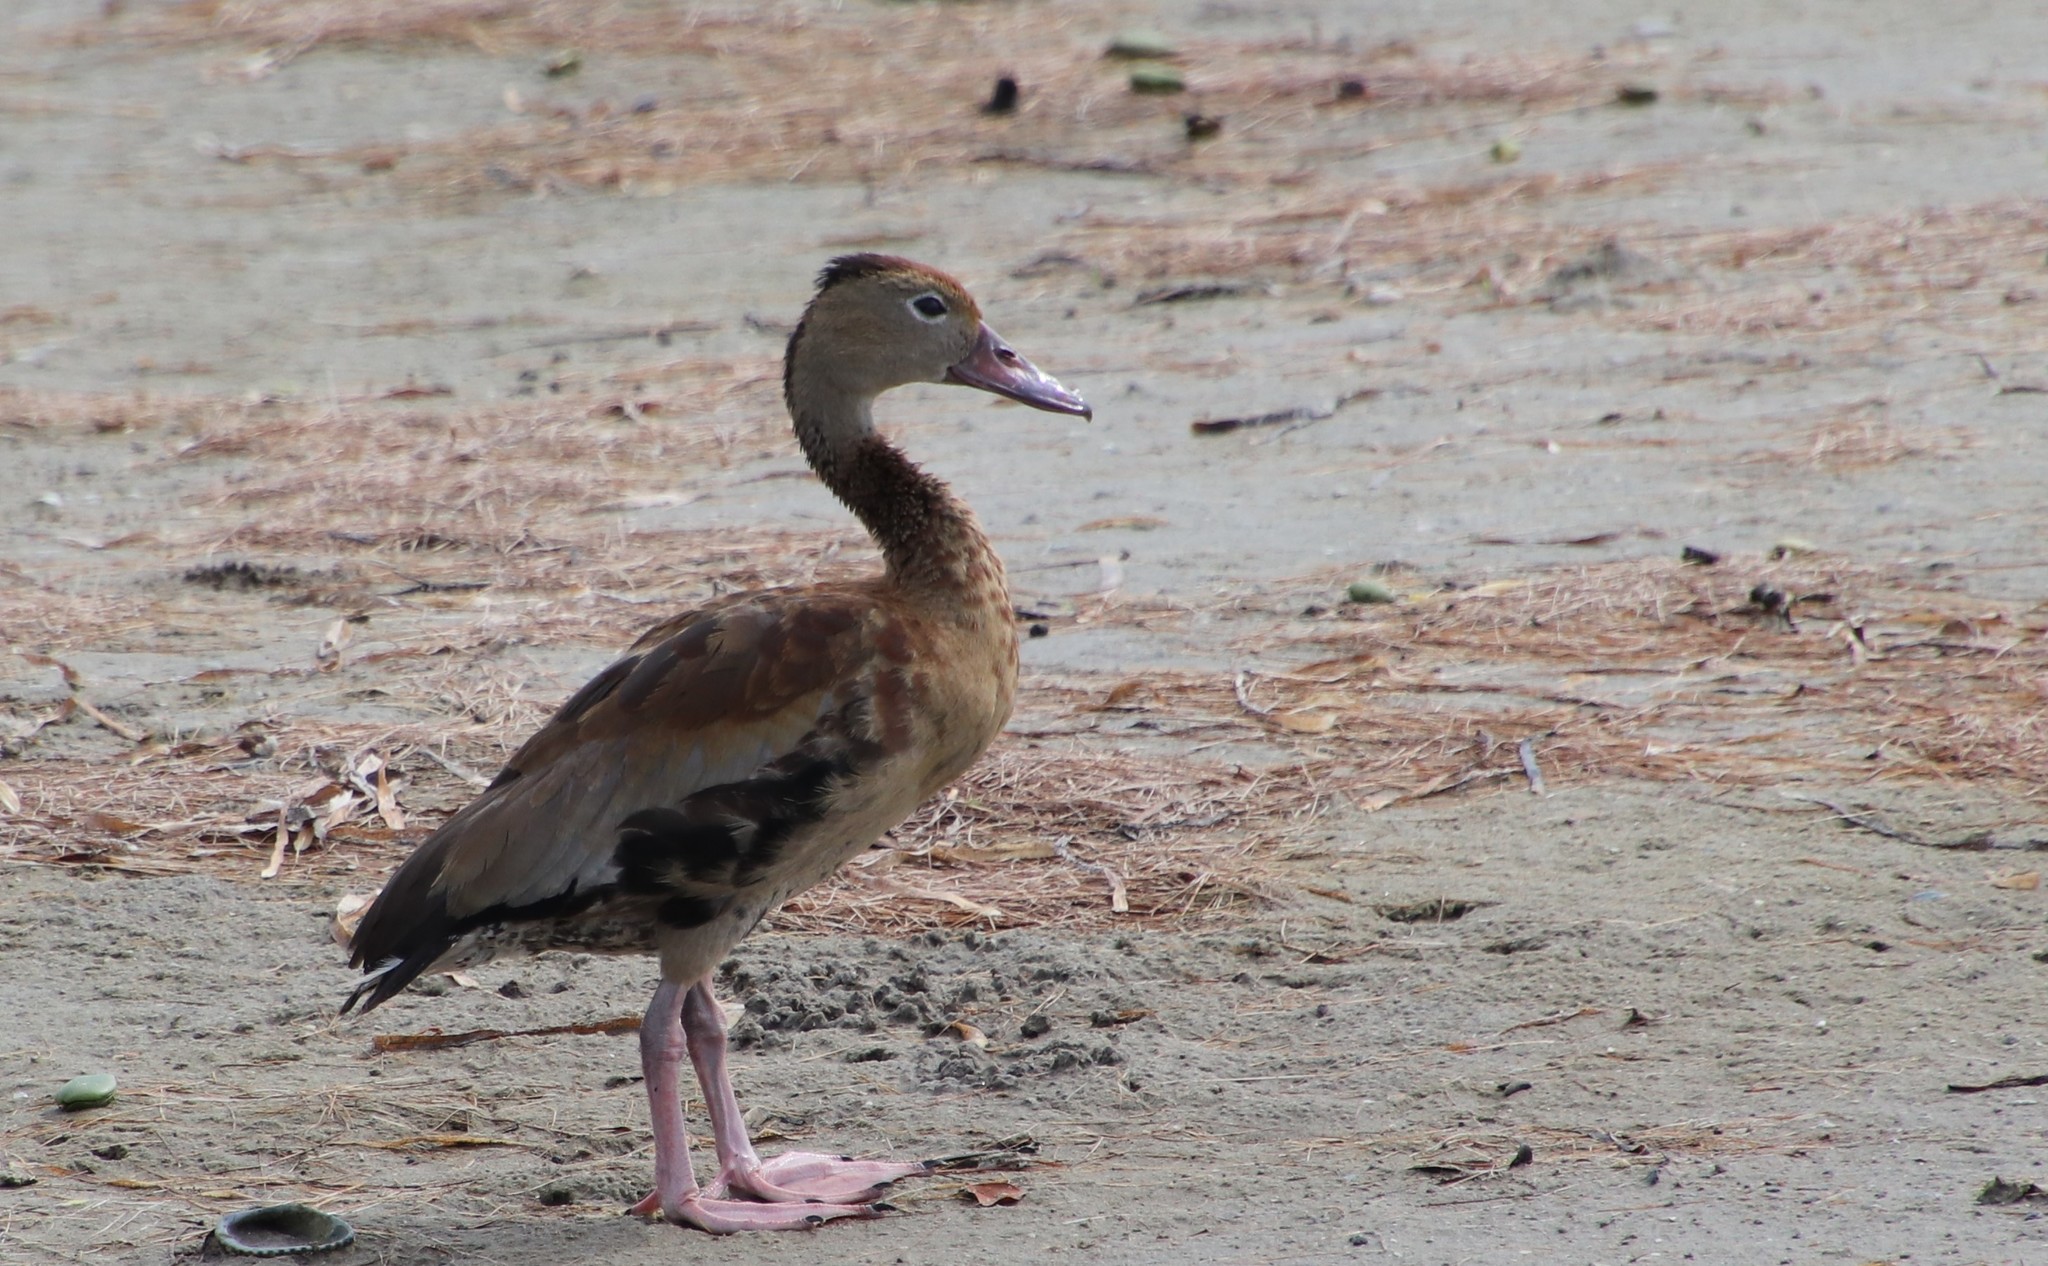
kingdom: Animalia
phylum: Chordata
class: Aves
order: Anseriformes
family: Anatidae
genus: Dendrocygna
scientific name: Dendrocygna autumnalis
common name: Black-bellied whistling duck
